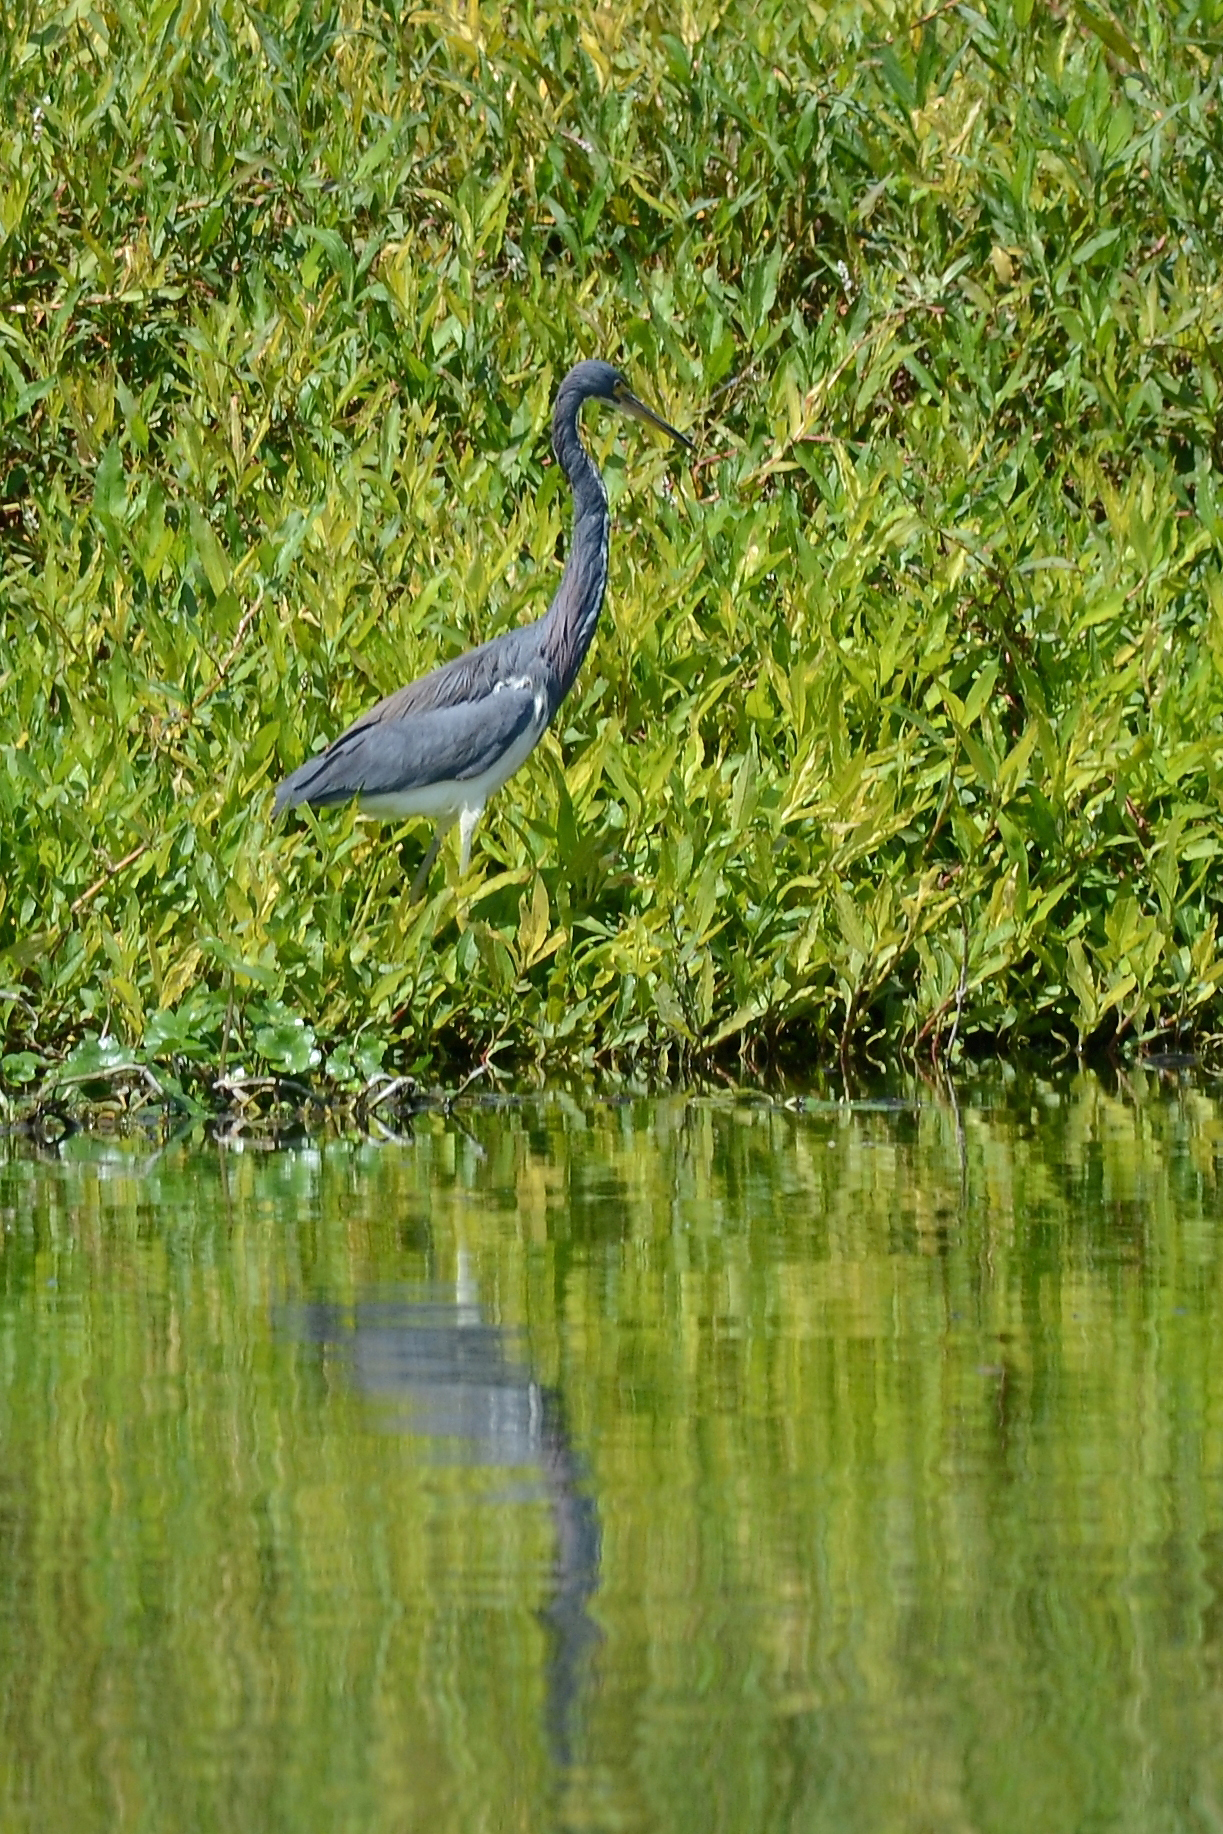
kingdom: Animalia
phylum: Chordata
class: Aves
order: Pelecaniformes
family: Ardeidae
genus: Egretta
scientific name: Egretta tricolor
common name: Tricolored heron
